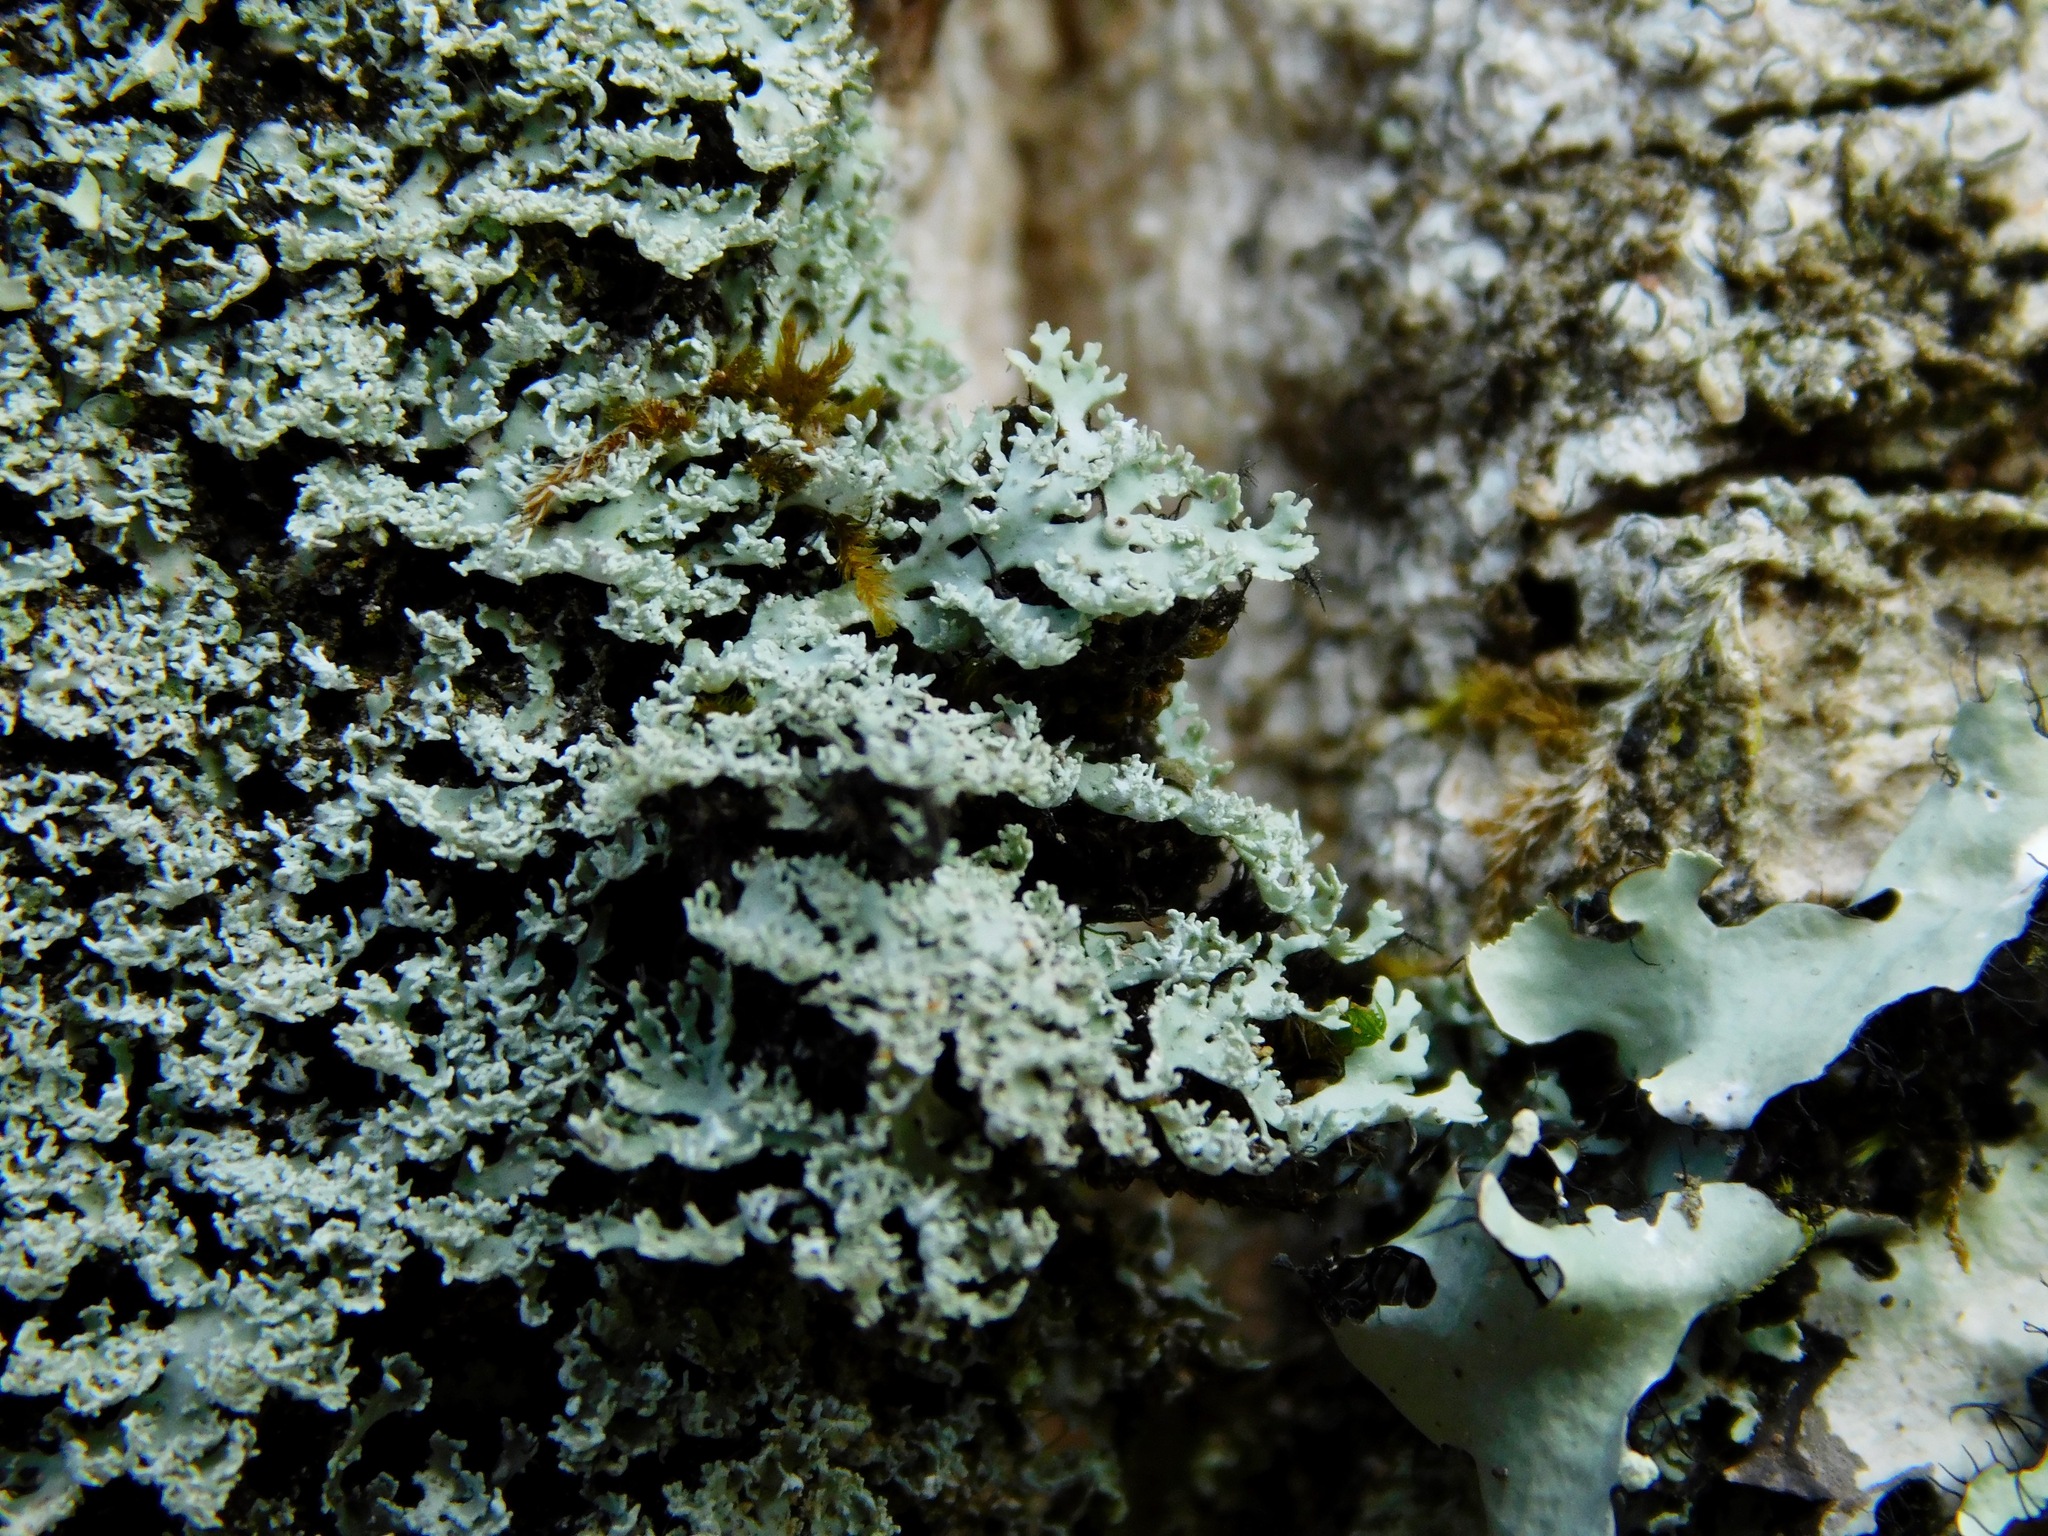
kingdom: Fungi
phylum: Ascomycota
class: Lecanoromycetes
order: Caliciales
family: Physciaceae
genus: Polyblastidium
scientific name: Polyblastidium squamulosum
